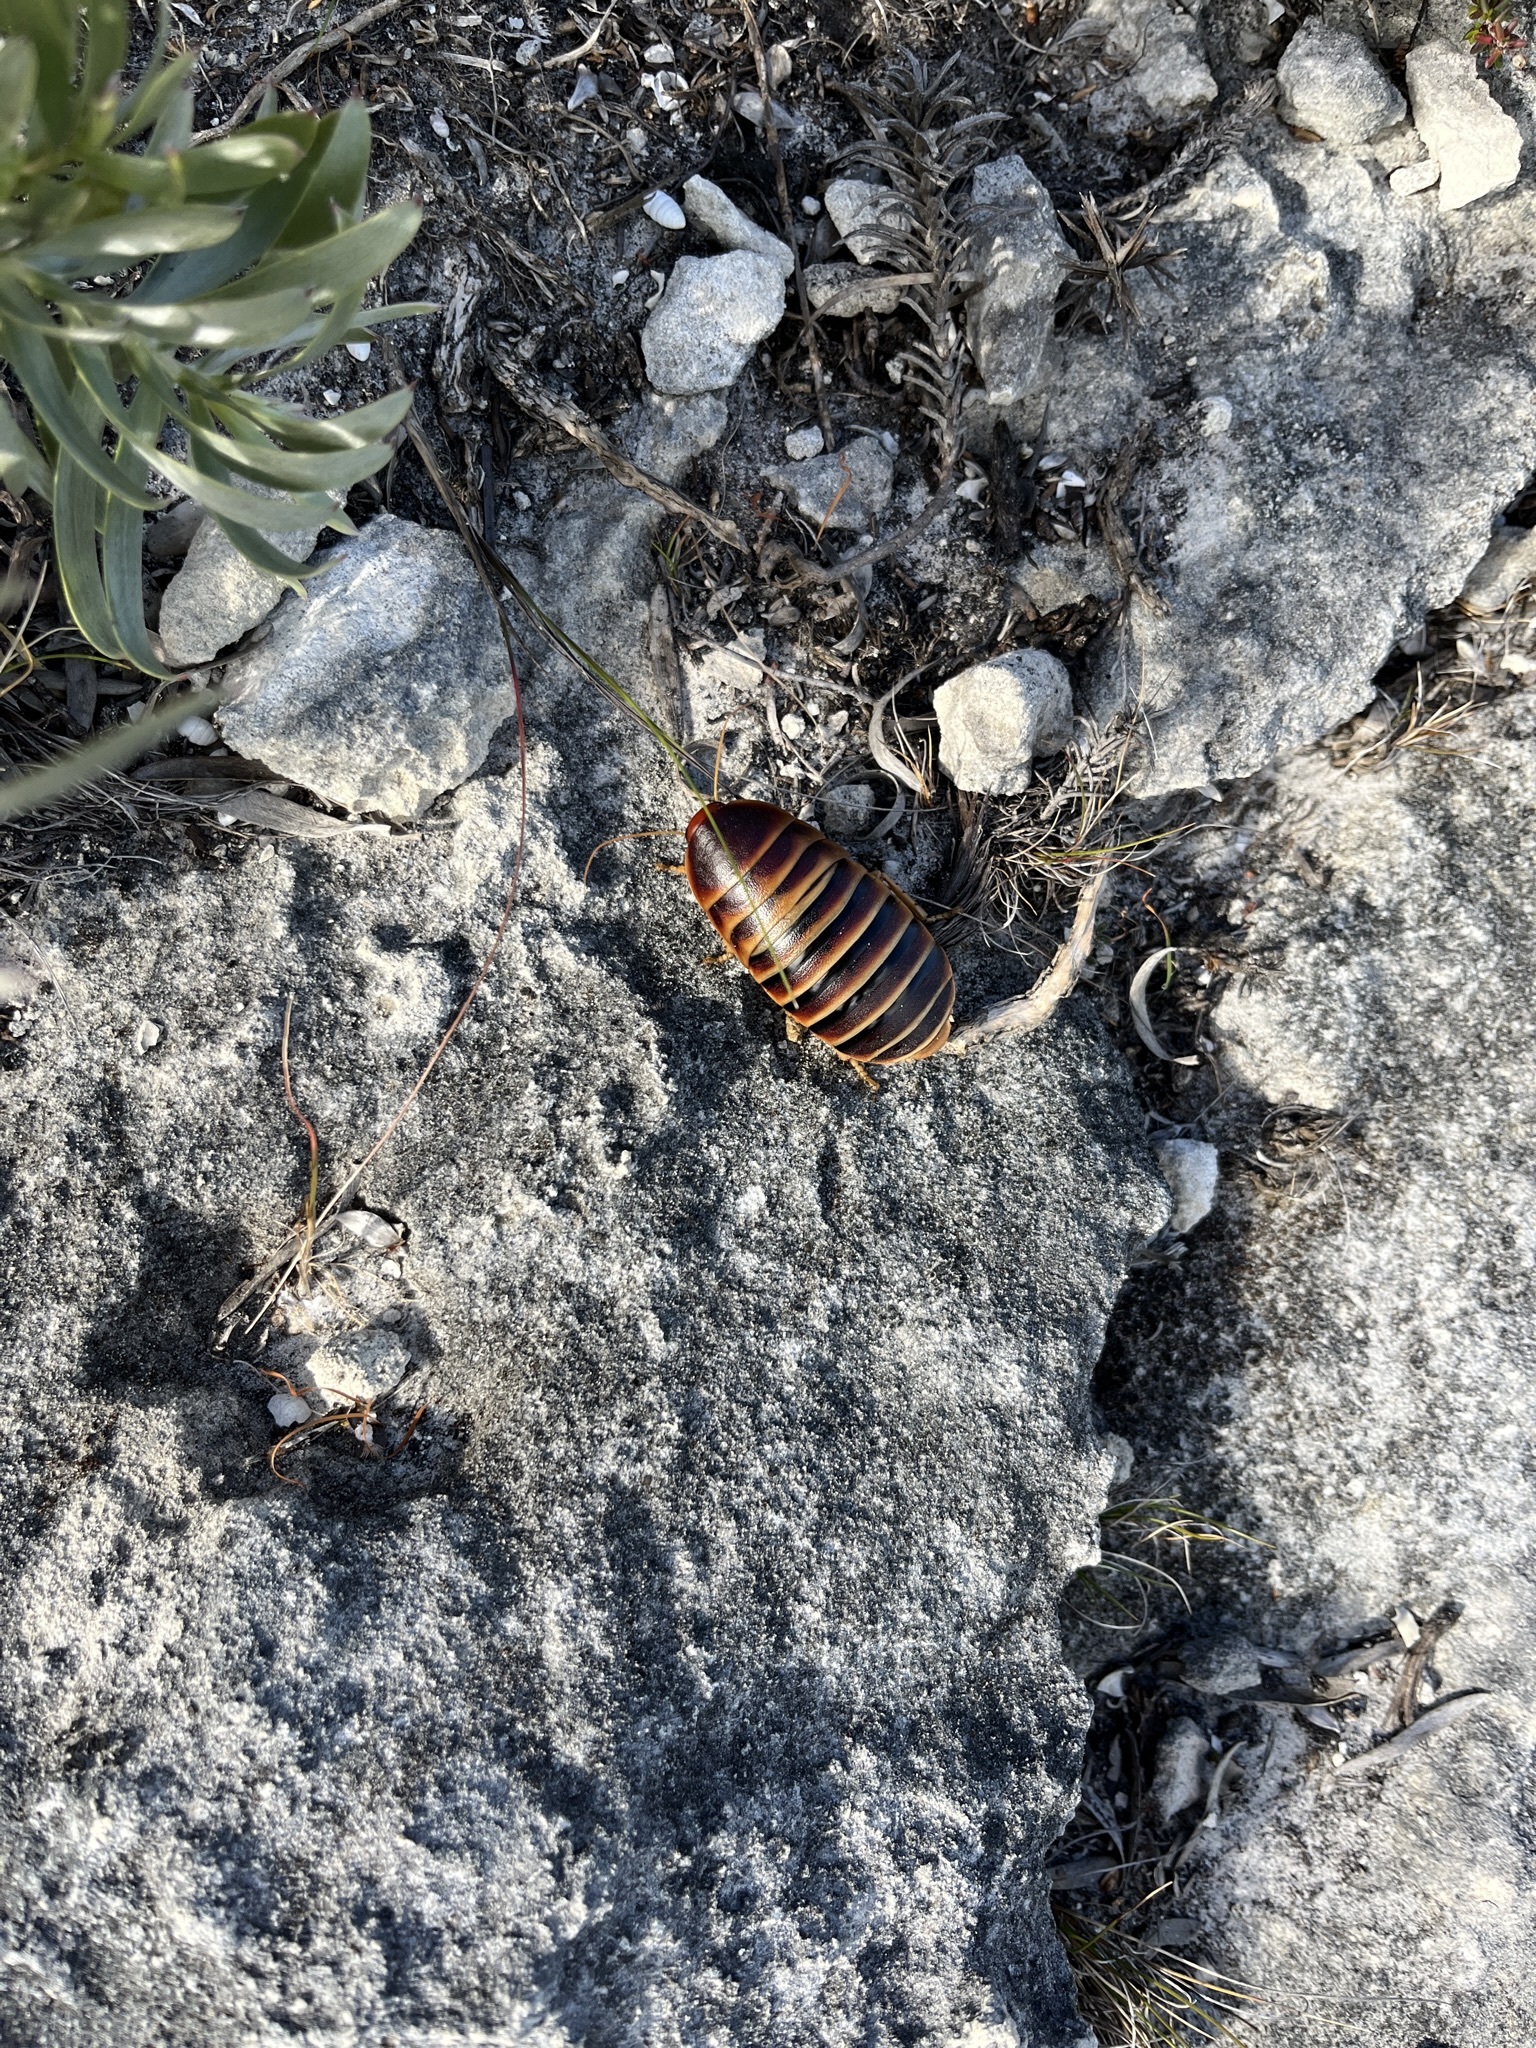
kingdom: Animalia
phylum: Arthropoda
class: Insecta
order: Blattodea
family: Blaberidae
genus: Aptera
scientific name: Aptera fusca
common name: Cape mountain cockroach
